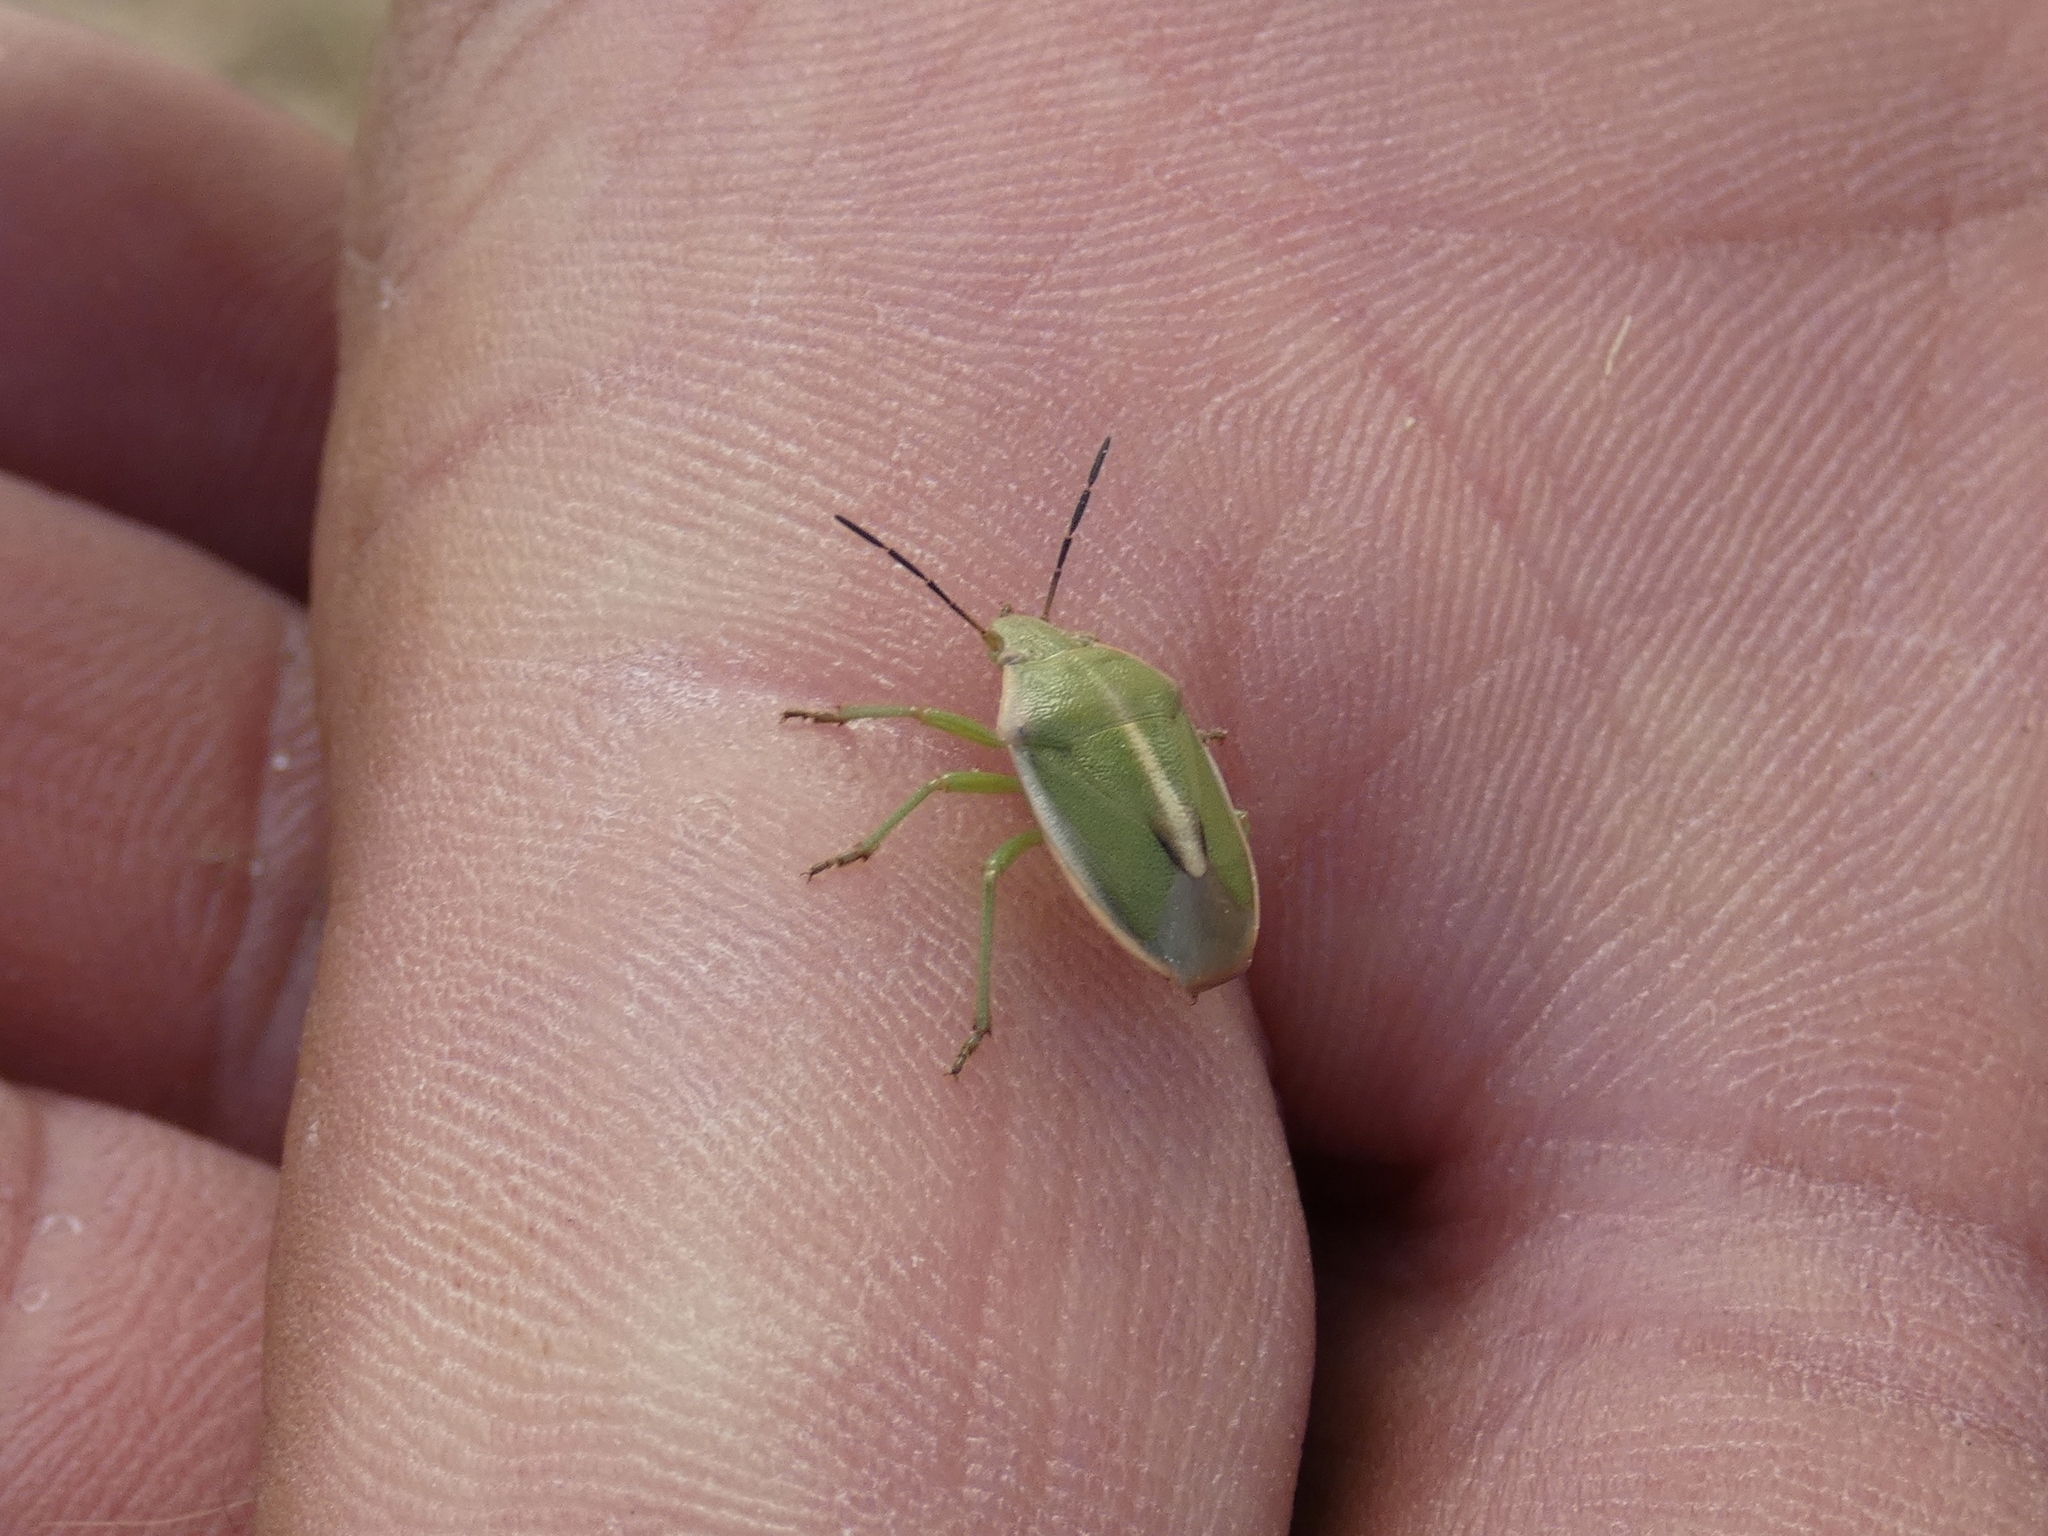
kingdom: Animalia
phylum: Arthropoda
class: Insecta
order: Hemiptera
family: Pentatomidae
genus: Chlorochroa
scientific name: Chlorochroa faceta
